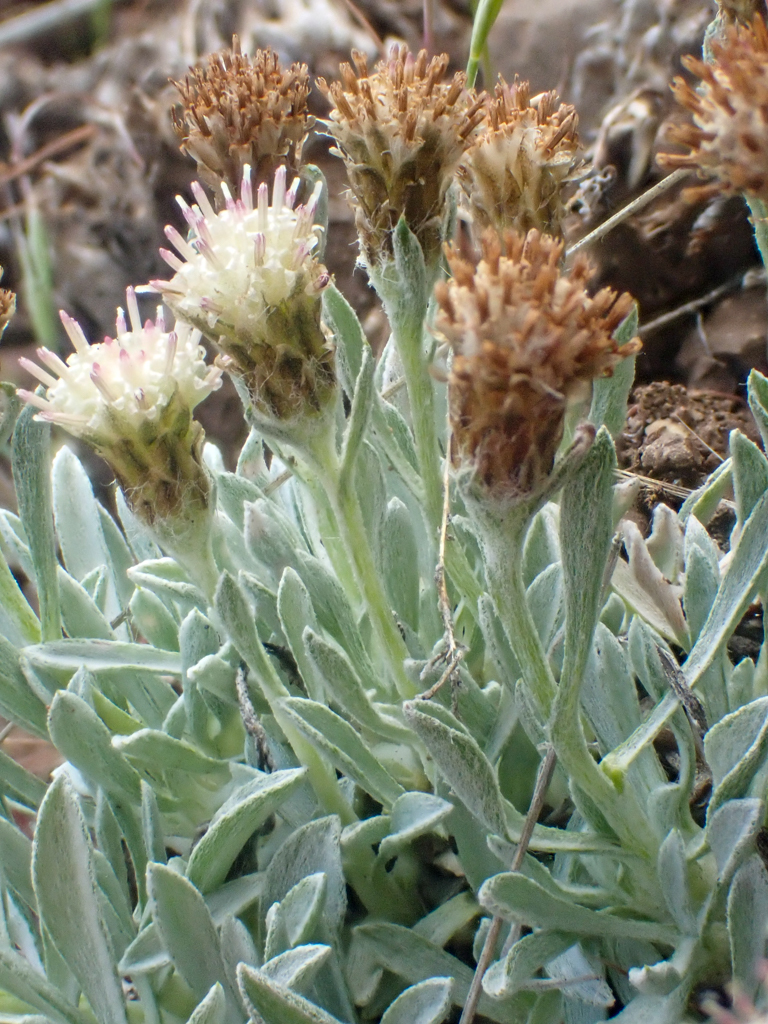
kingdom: Plantae
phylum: Tracheophyta
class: Magnoliopsida
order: Asterales
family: Asteraceae
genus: Antennaria
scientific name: Antennaria dimorpha
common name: Cushion pussytoes
